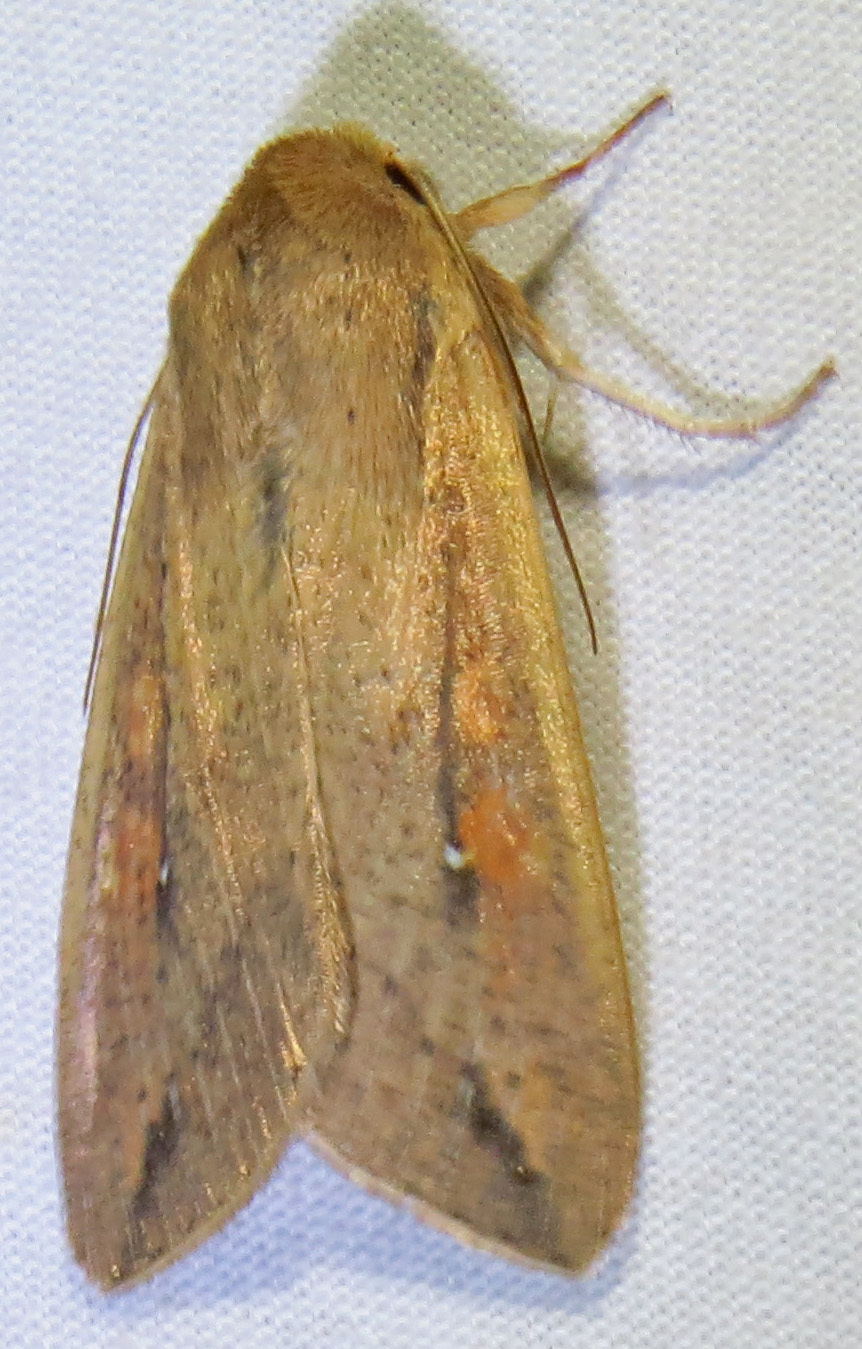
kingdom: Animalia
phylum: Arthropoda
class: Insecta
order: Lepidoptera
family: Noctuidae
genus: Mythimna
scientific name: Mythimna unipuncta
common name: White-speck
